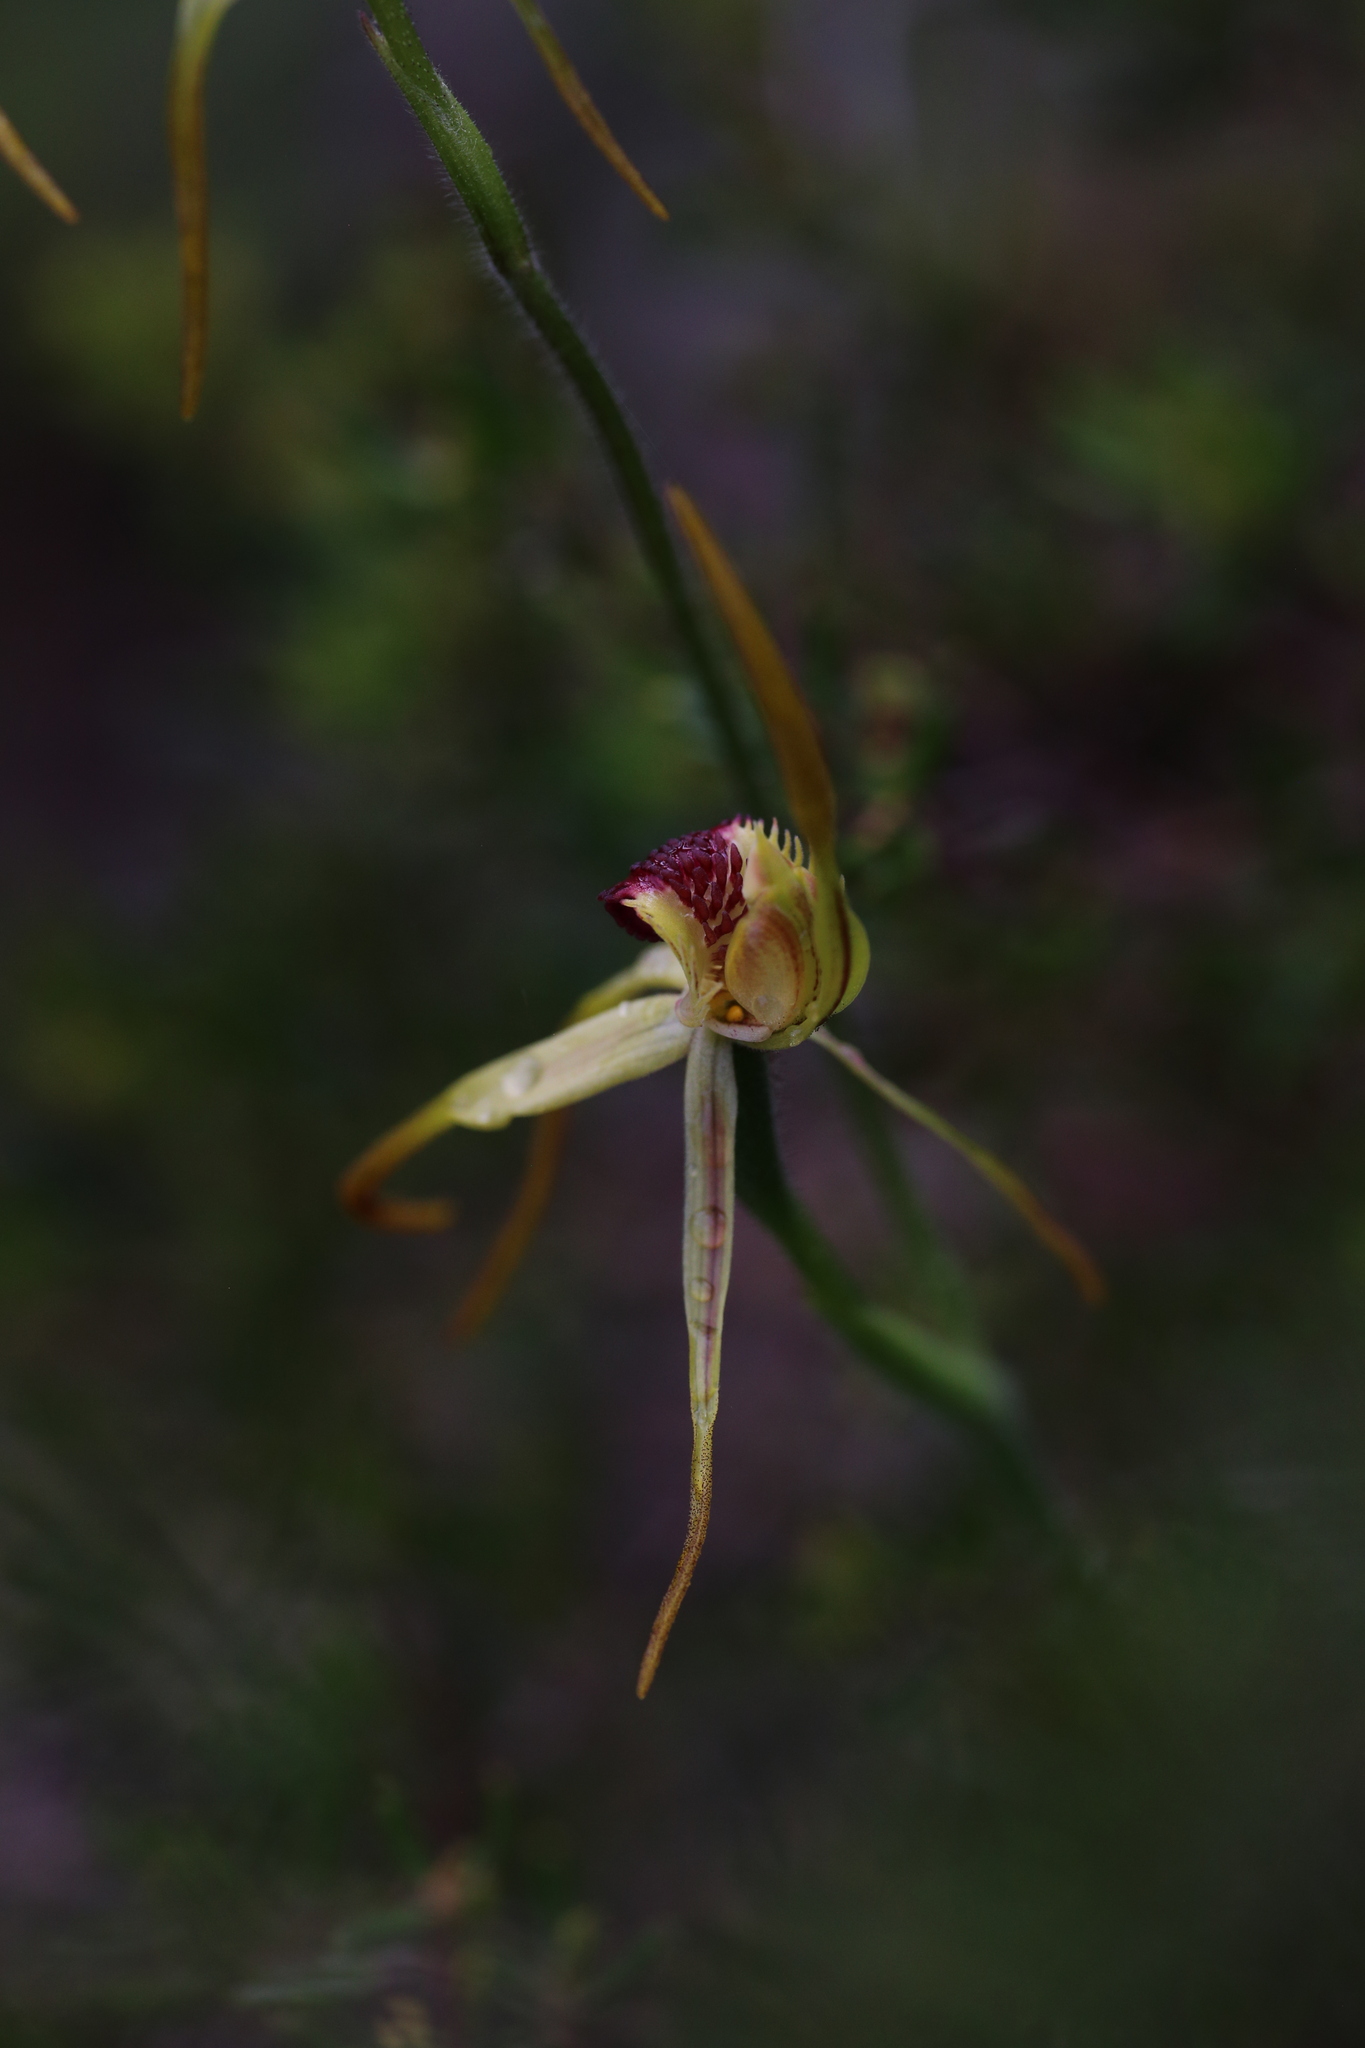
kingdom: Plantae
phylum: Tracheophyta
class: Liliopsida
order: Asparagales
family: Orchidaceae
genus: Caladenia
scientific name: Caladenia longiclavata
